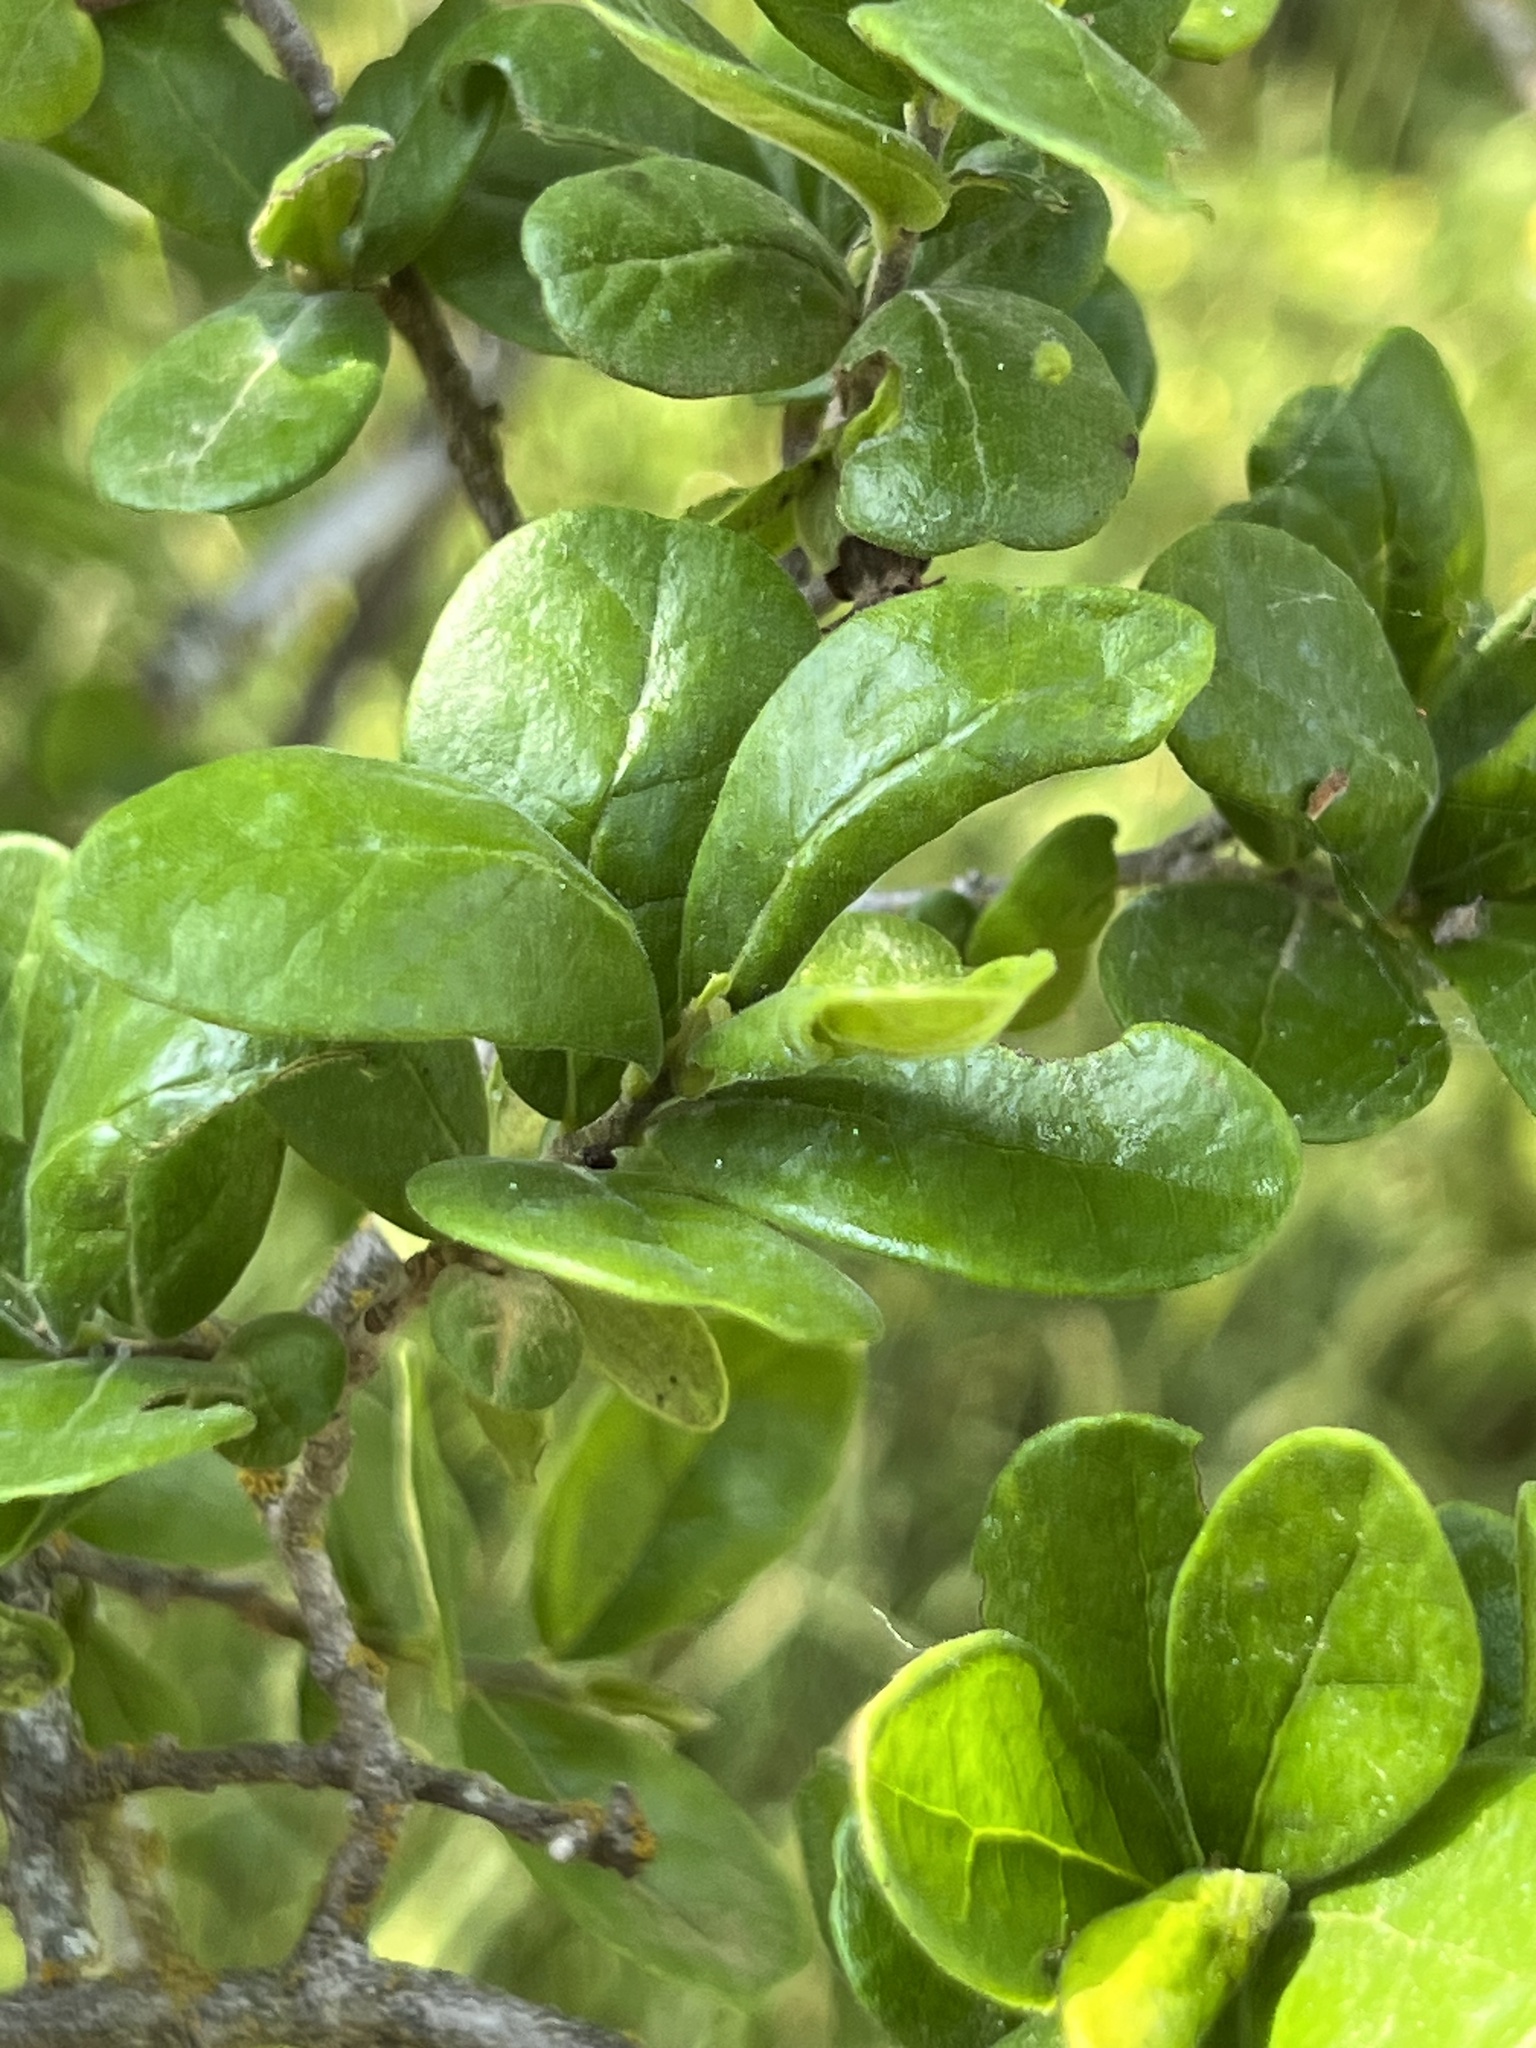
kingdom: Plantae
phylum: Tracheophyta
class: Magnoliopsida
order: Ericales
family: Ebenaceae
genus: Diospyros
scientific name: Diospyros texana
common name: Texas persimmon
